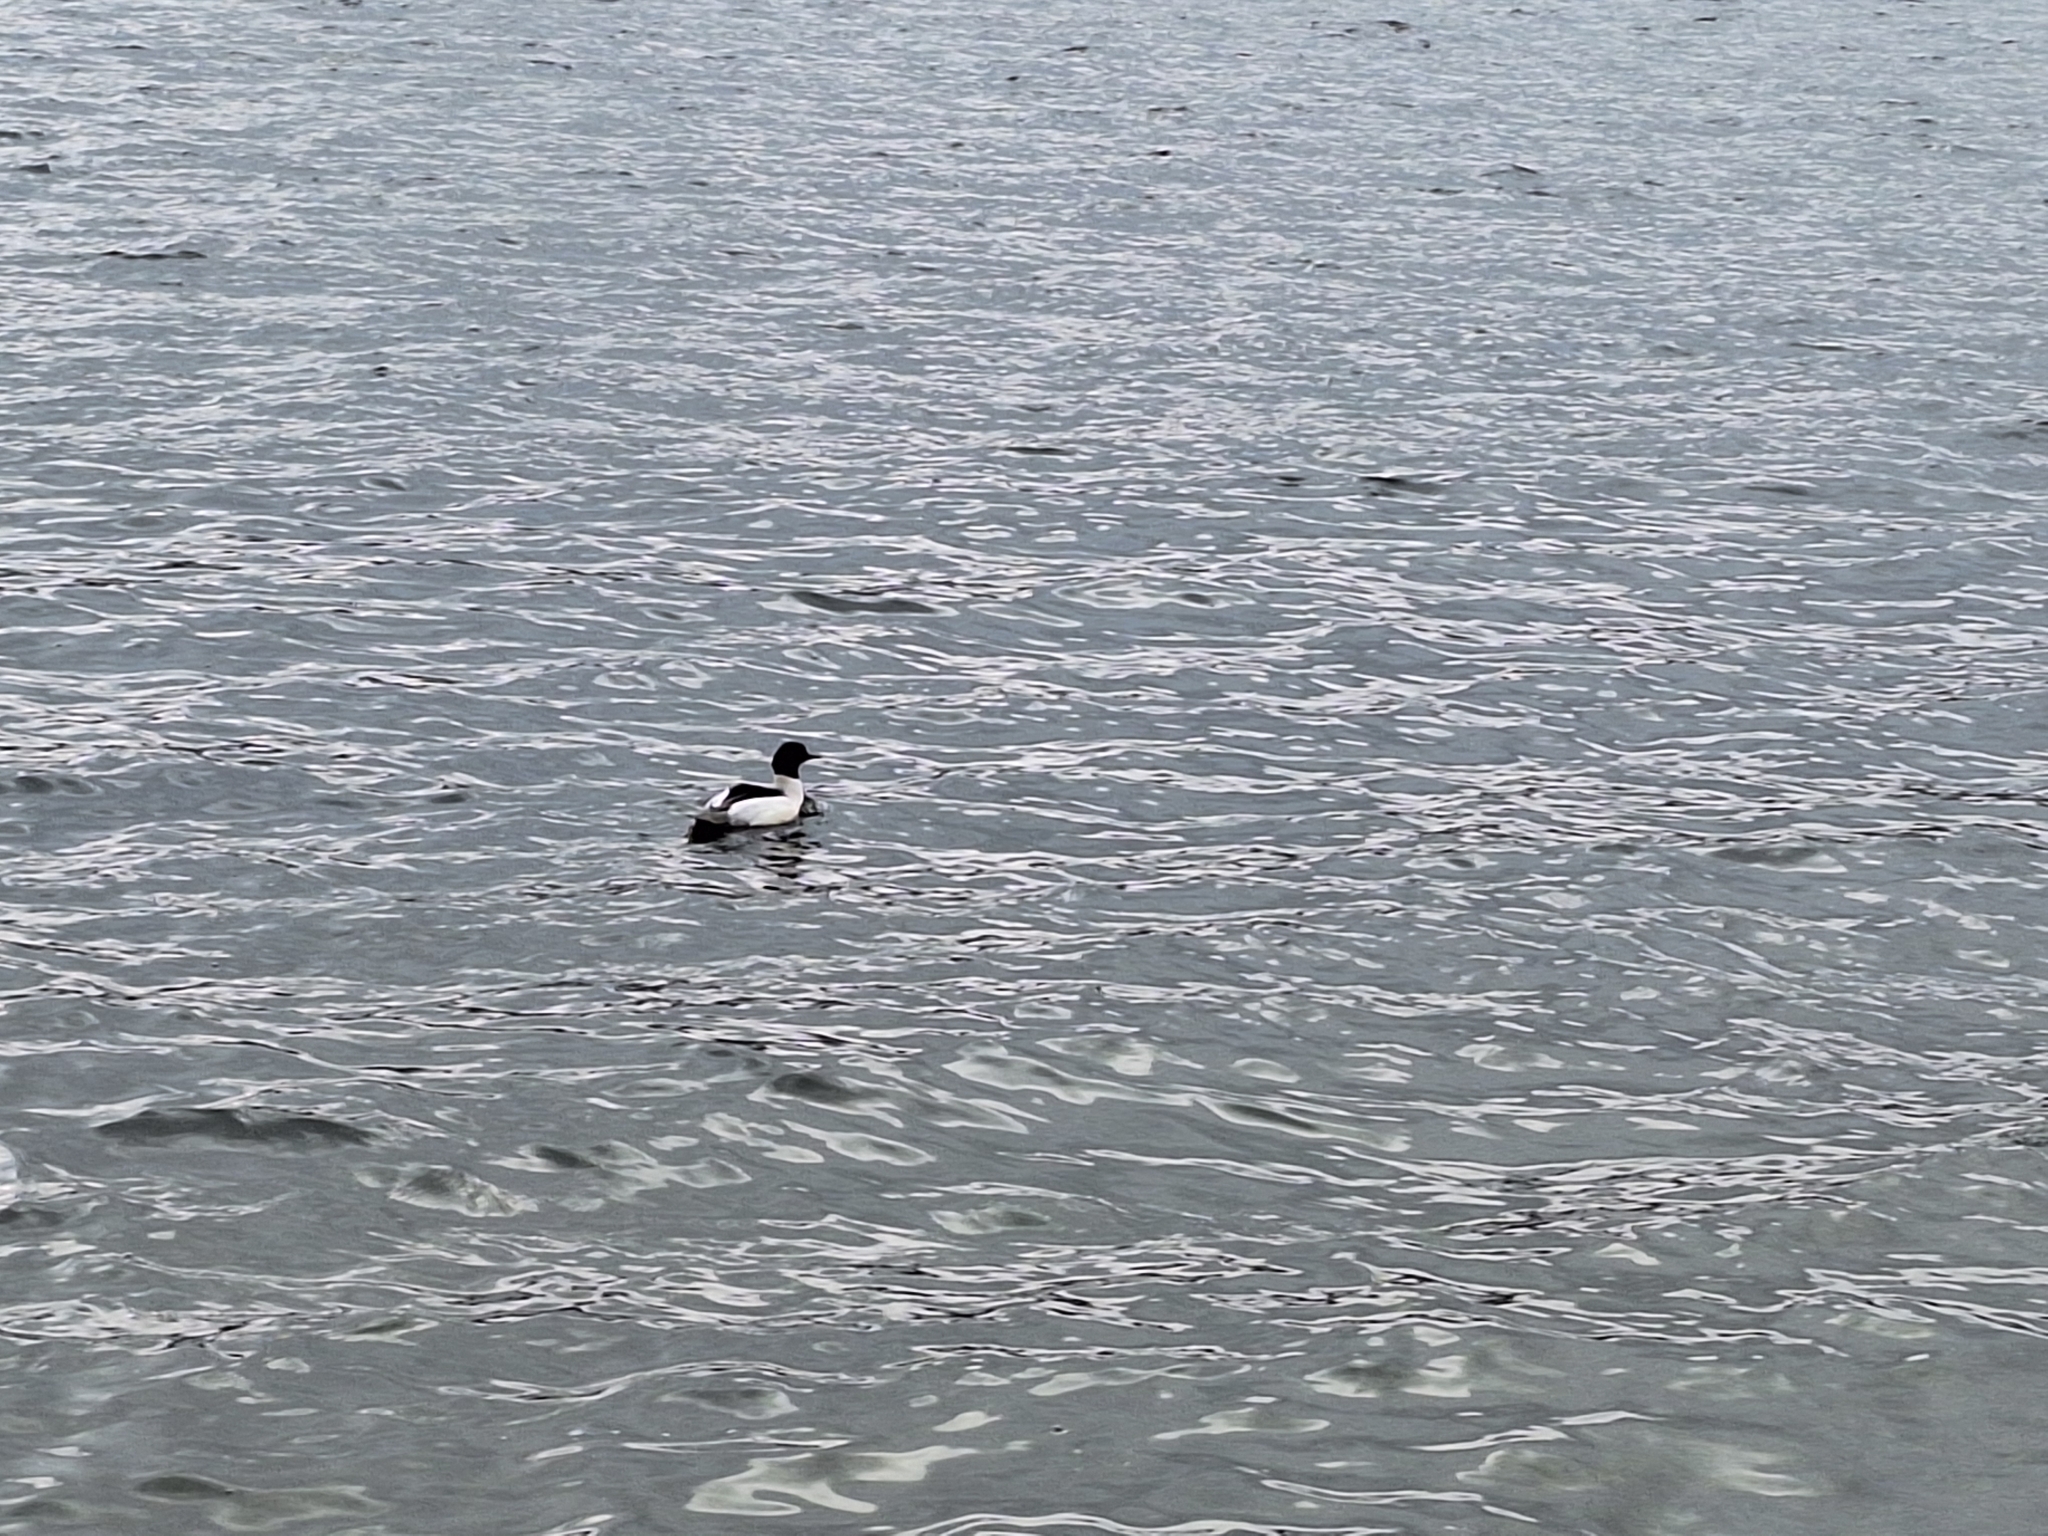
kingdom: Animalia
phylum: Chordata
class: Aves
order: Anseriformes
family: Anatidae
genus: Mergus
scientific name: Mergus merganser
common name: Common merganser
